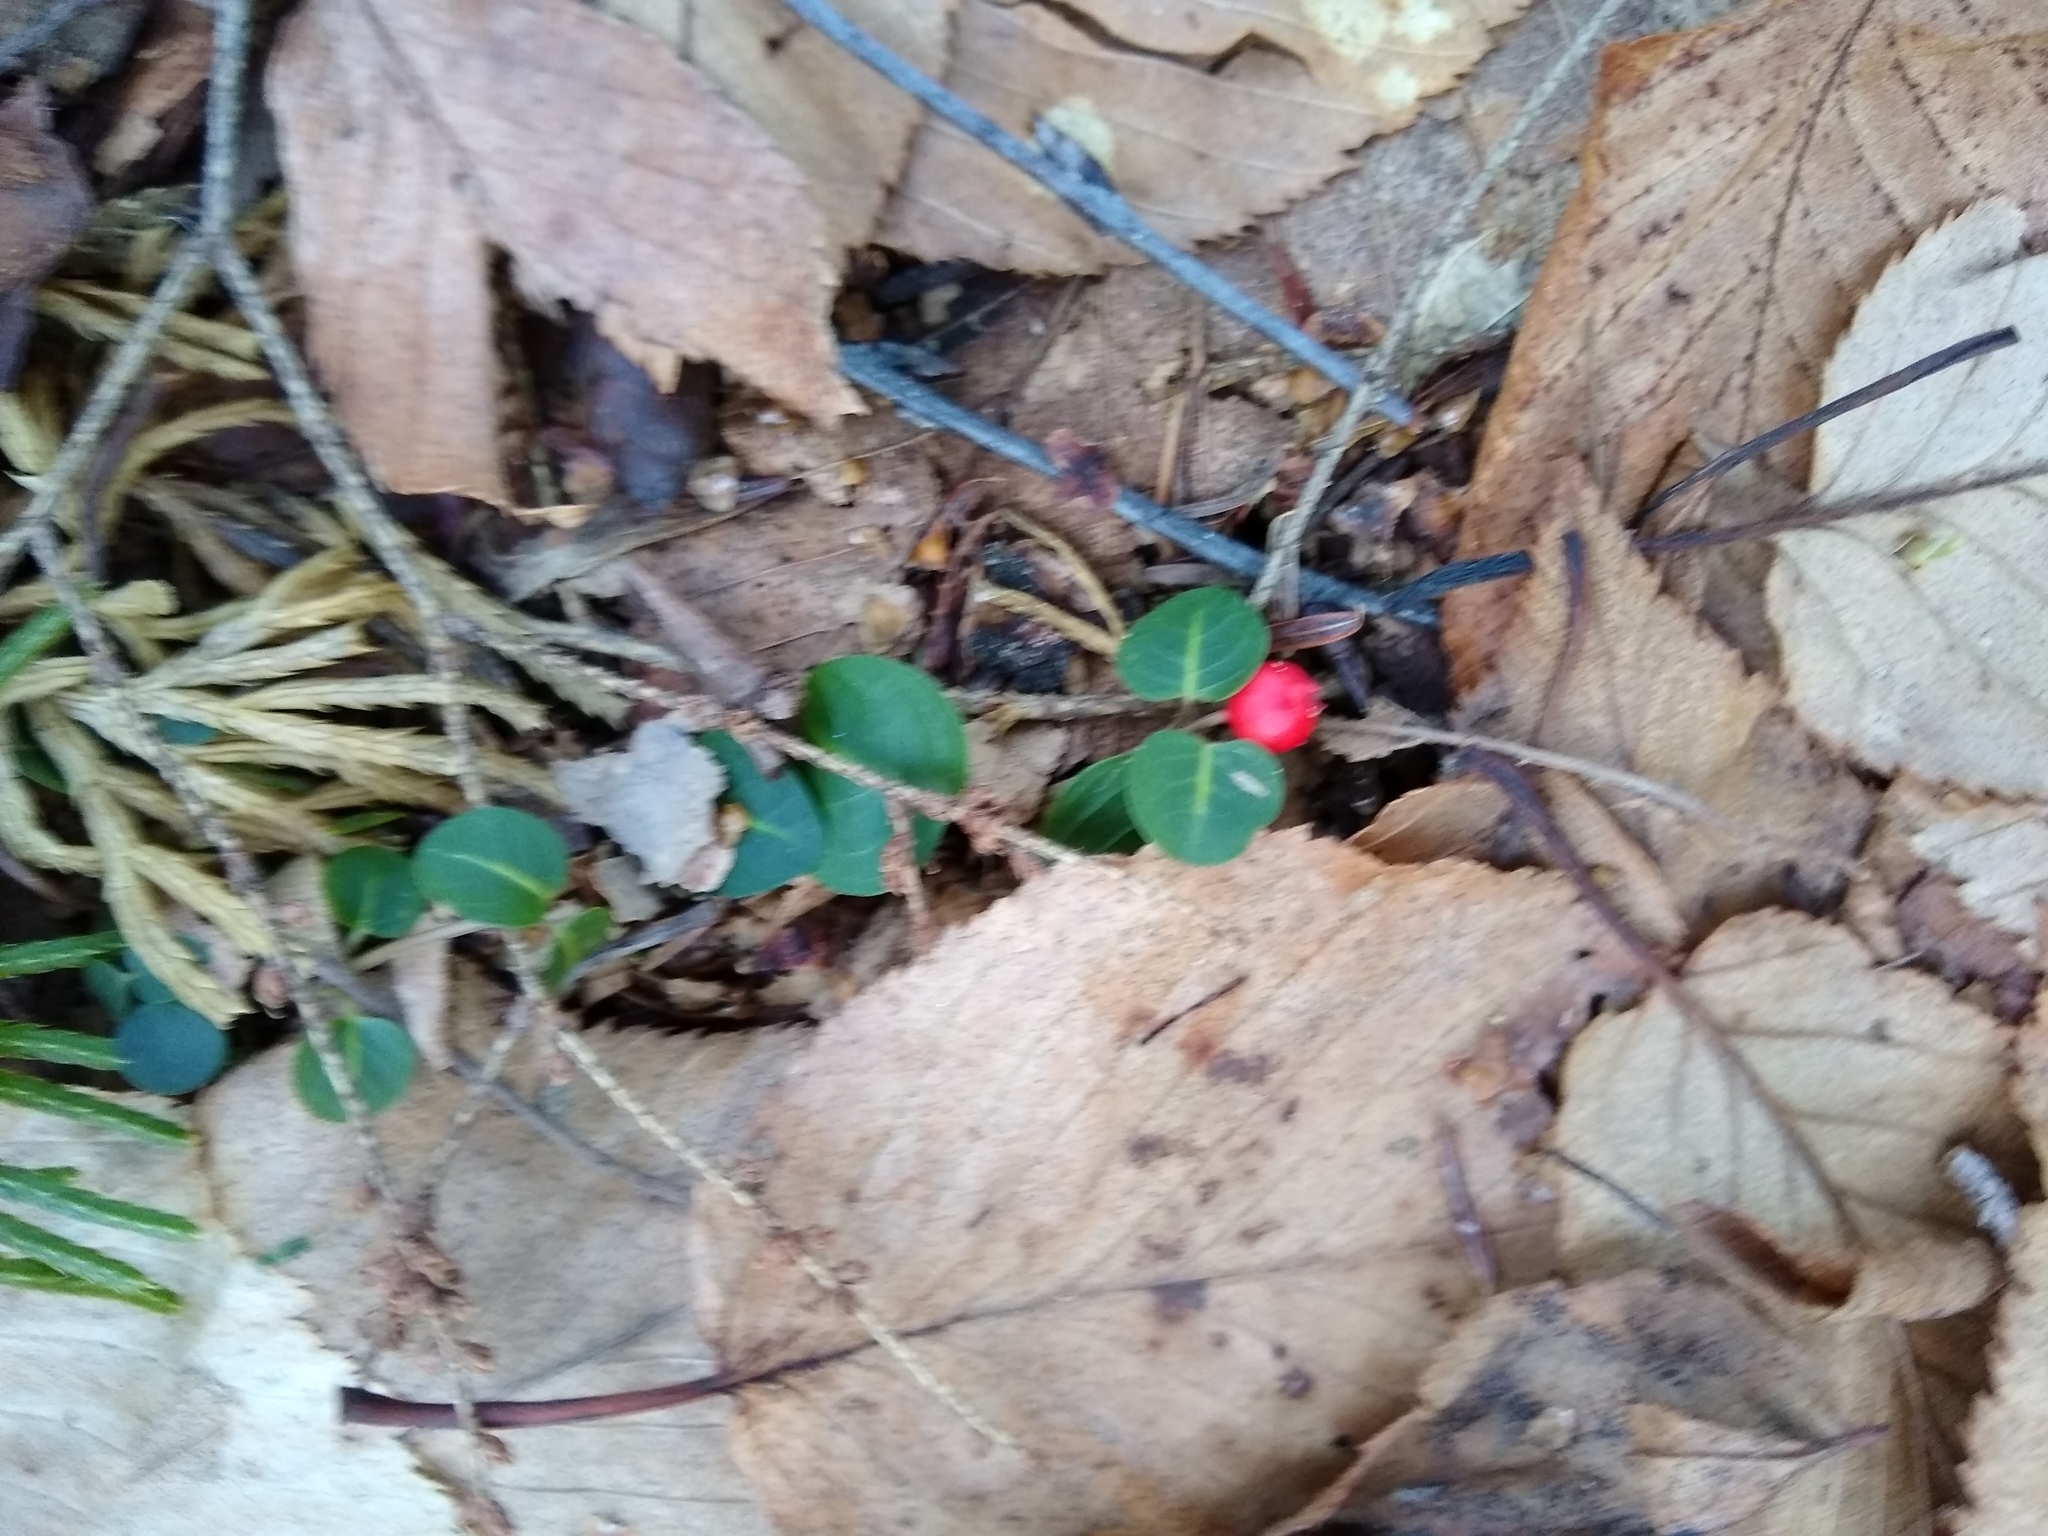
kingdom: Plantae
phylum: Tracheophyta
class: Magnoliopsida
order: Gentianales
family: Rubiaceae
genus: Mitchella
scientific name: Mitchella repens
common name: Partridge-berry
